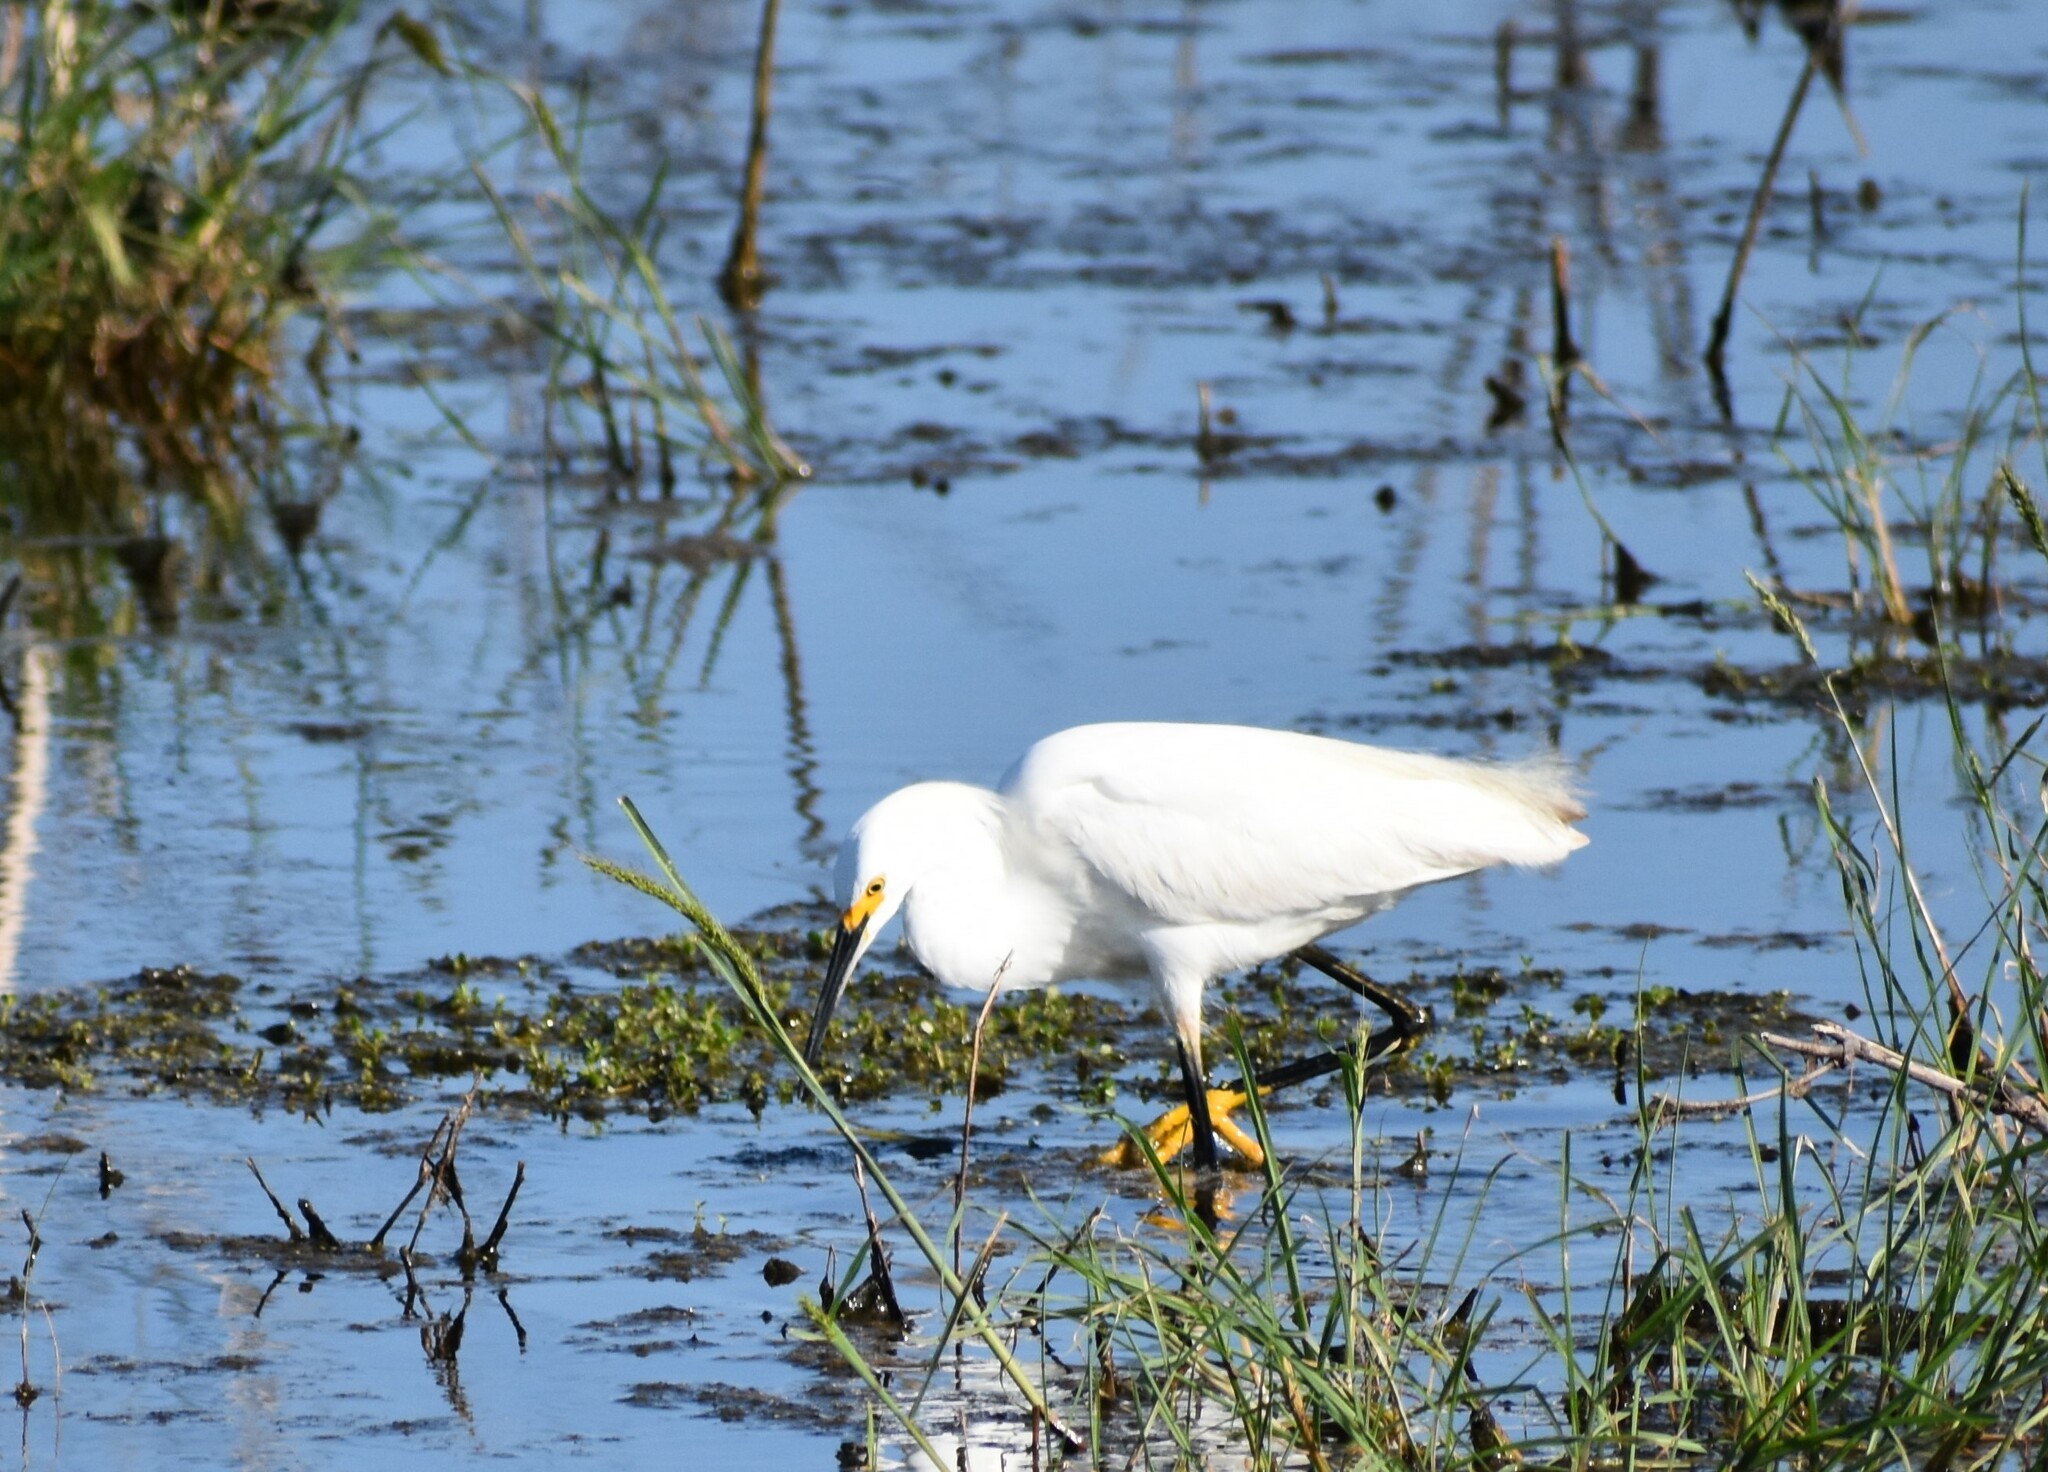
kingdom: Animalia
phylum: Chordata
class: Aves
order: Pelecaniformes
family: Ardeidae
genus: Egretta
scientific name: Egretta thula
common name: Snowy egret
